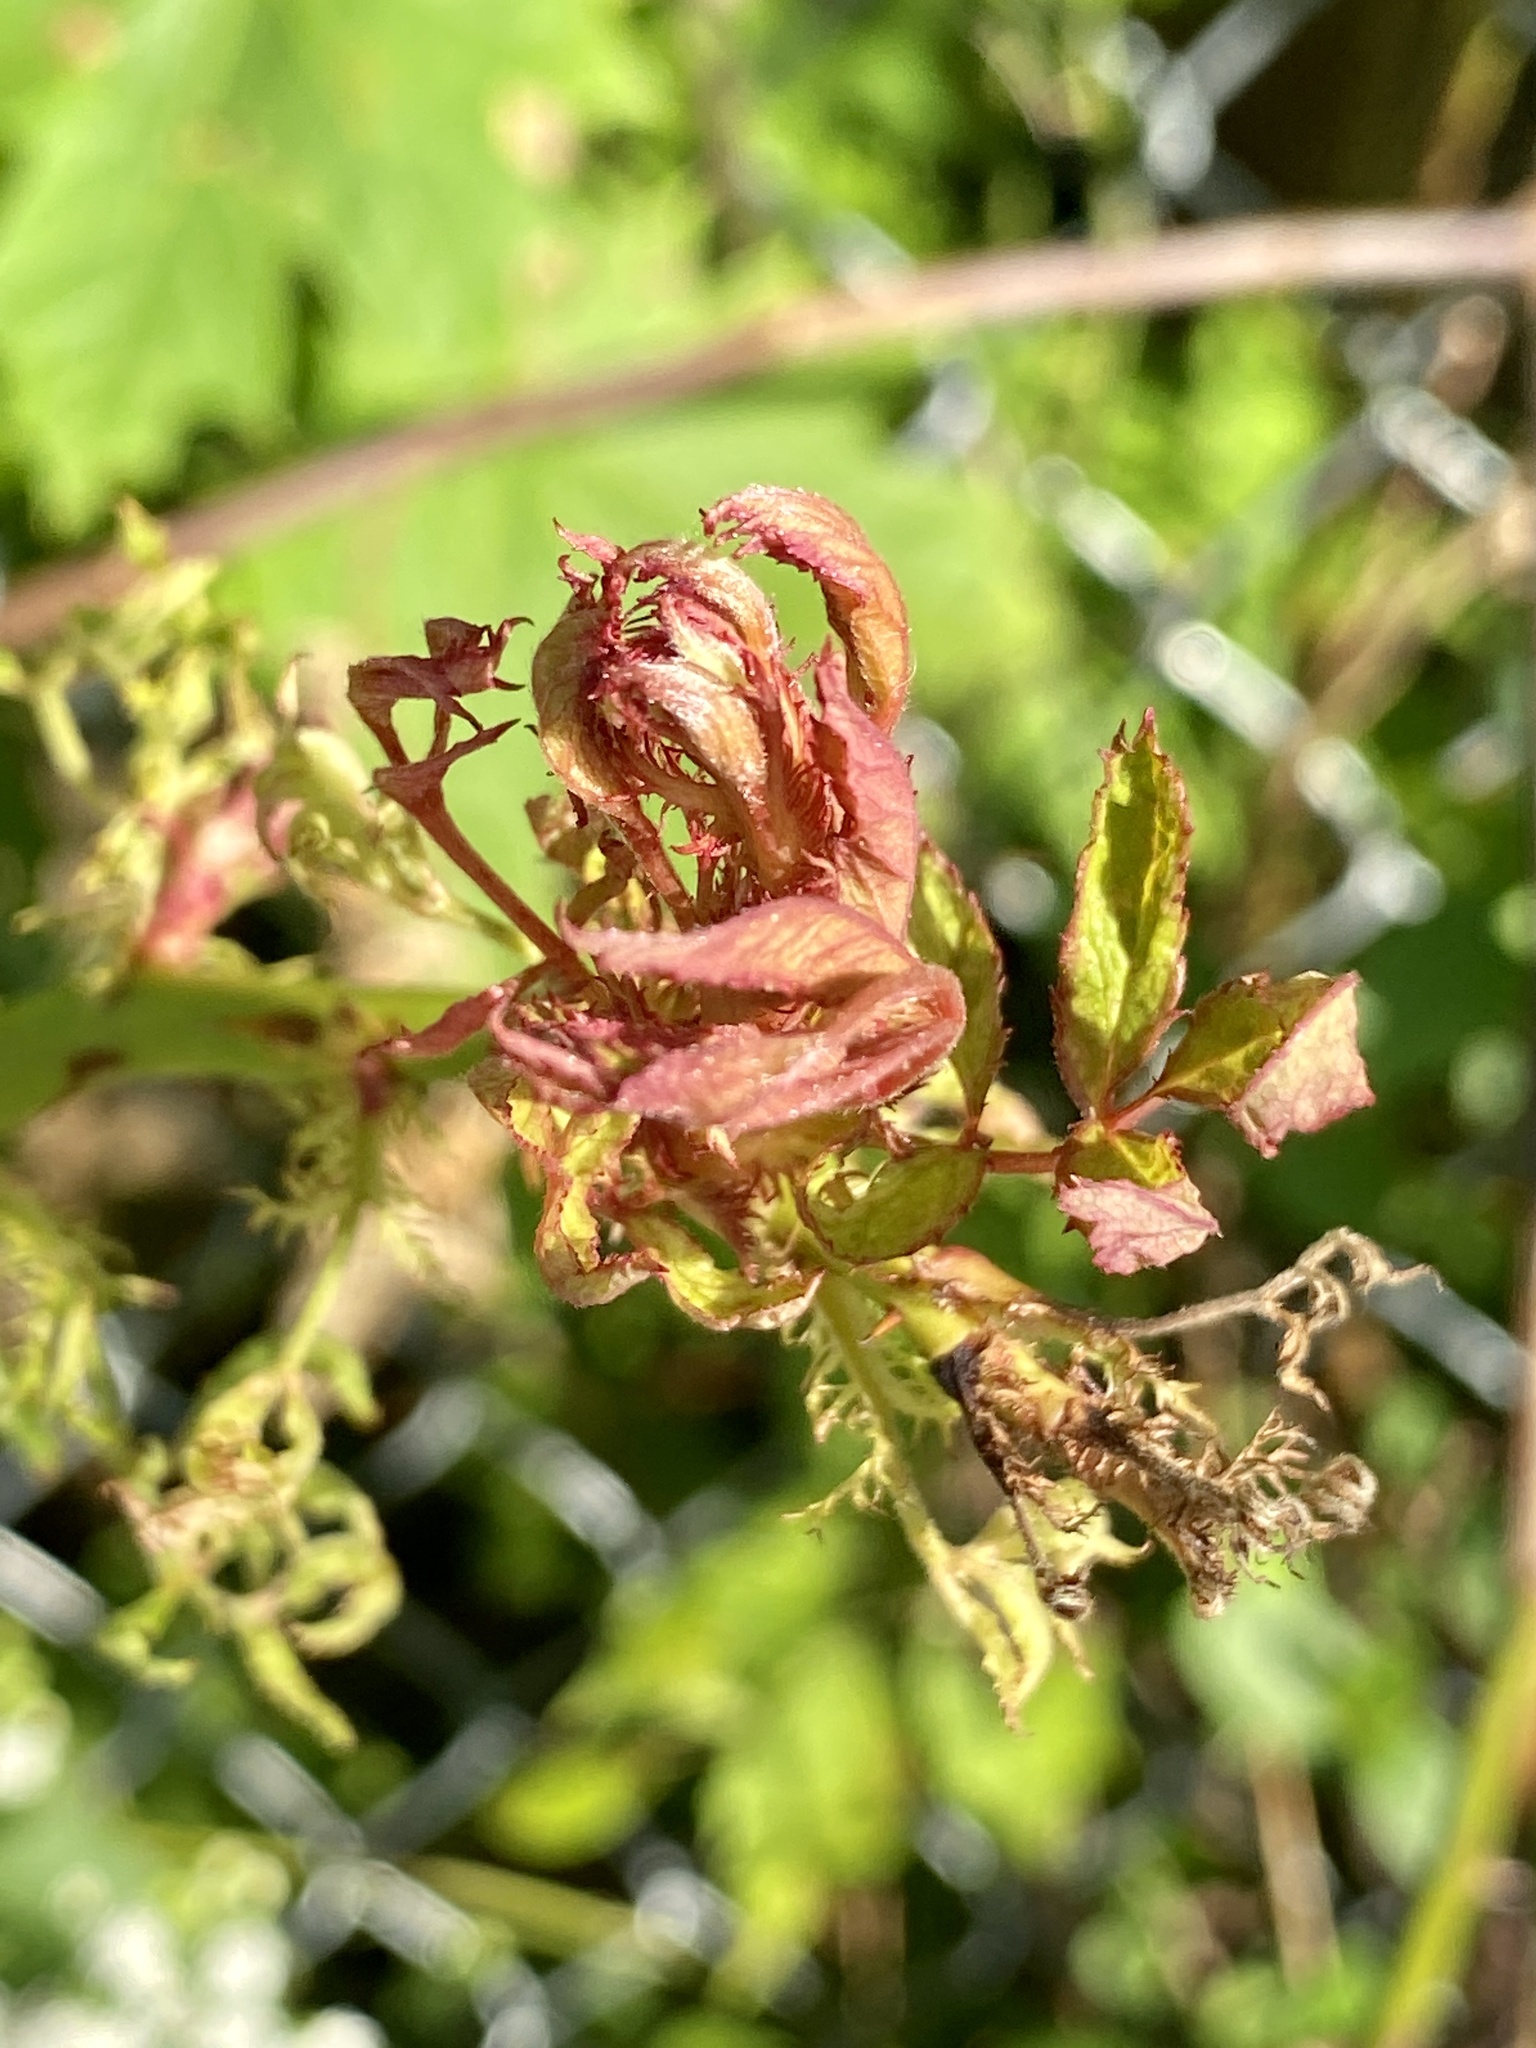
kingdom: Viruses
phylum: Negarnaviricota
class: Ellioviricetes
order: Bunyavirales
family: Fimoviridae
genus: Emaravirus
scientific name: Emaravirus rosae
